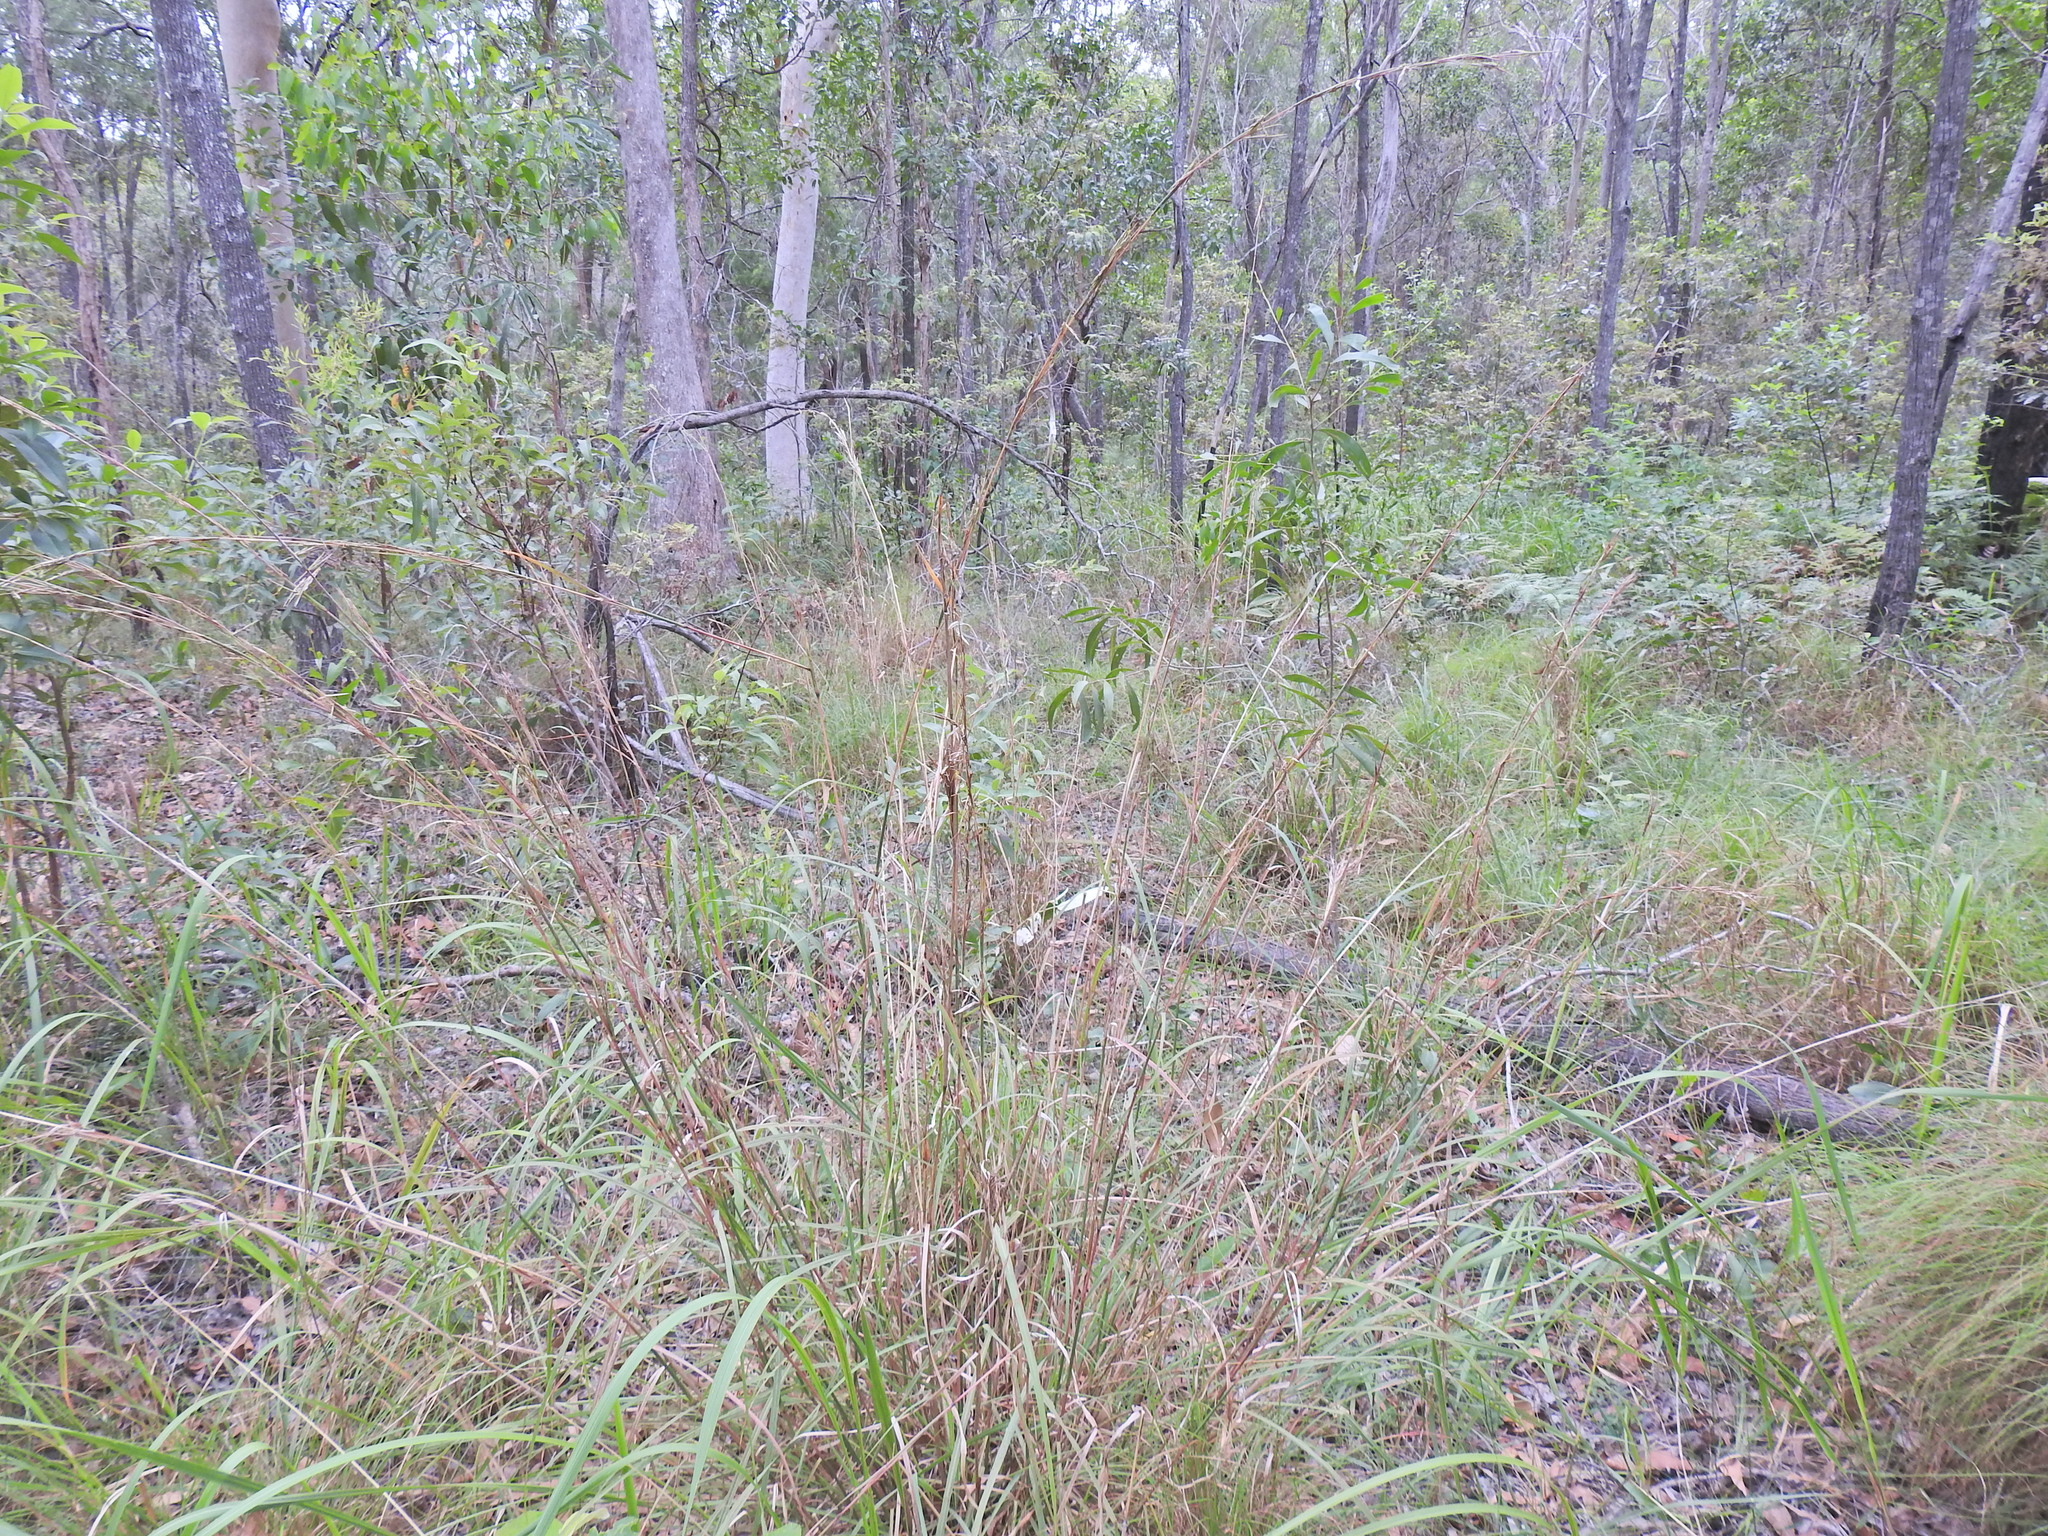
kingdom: Plantae
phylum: Tracheophyta
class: Liliopsida
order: Poales
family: Poaceae
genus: Cymbopogon
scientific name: Cymbopogon refractus
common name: Barbwire grass
